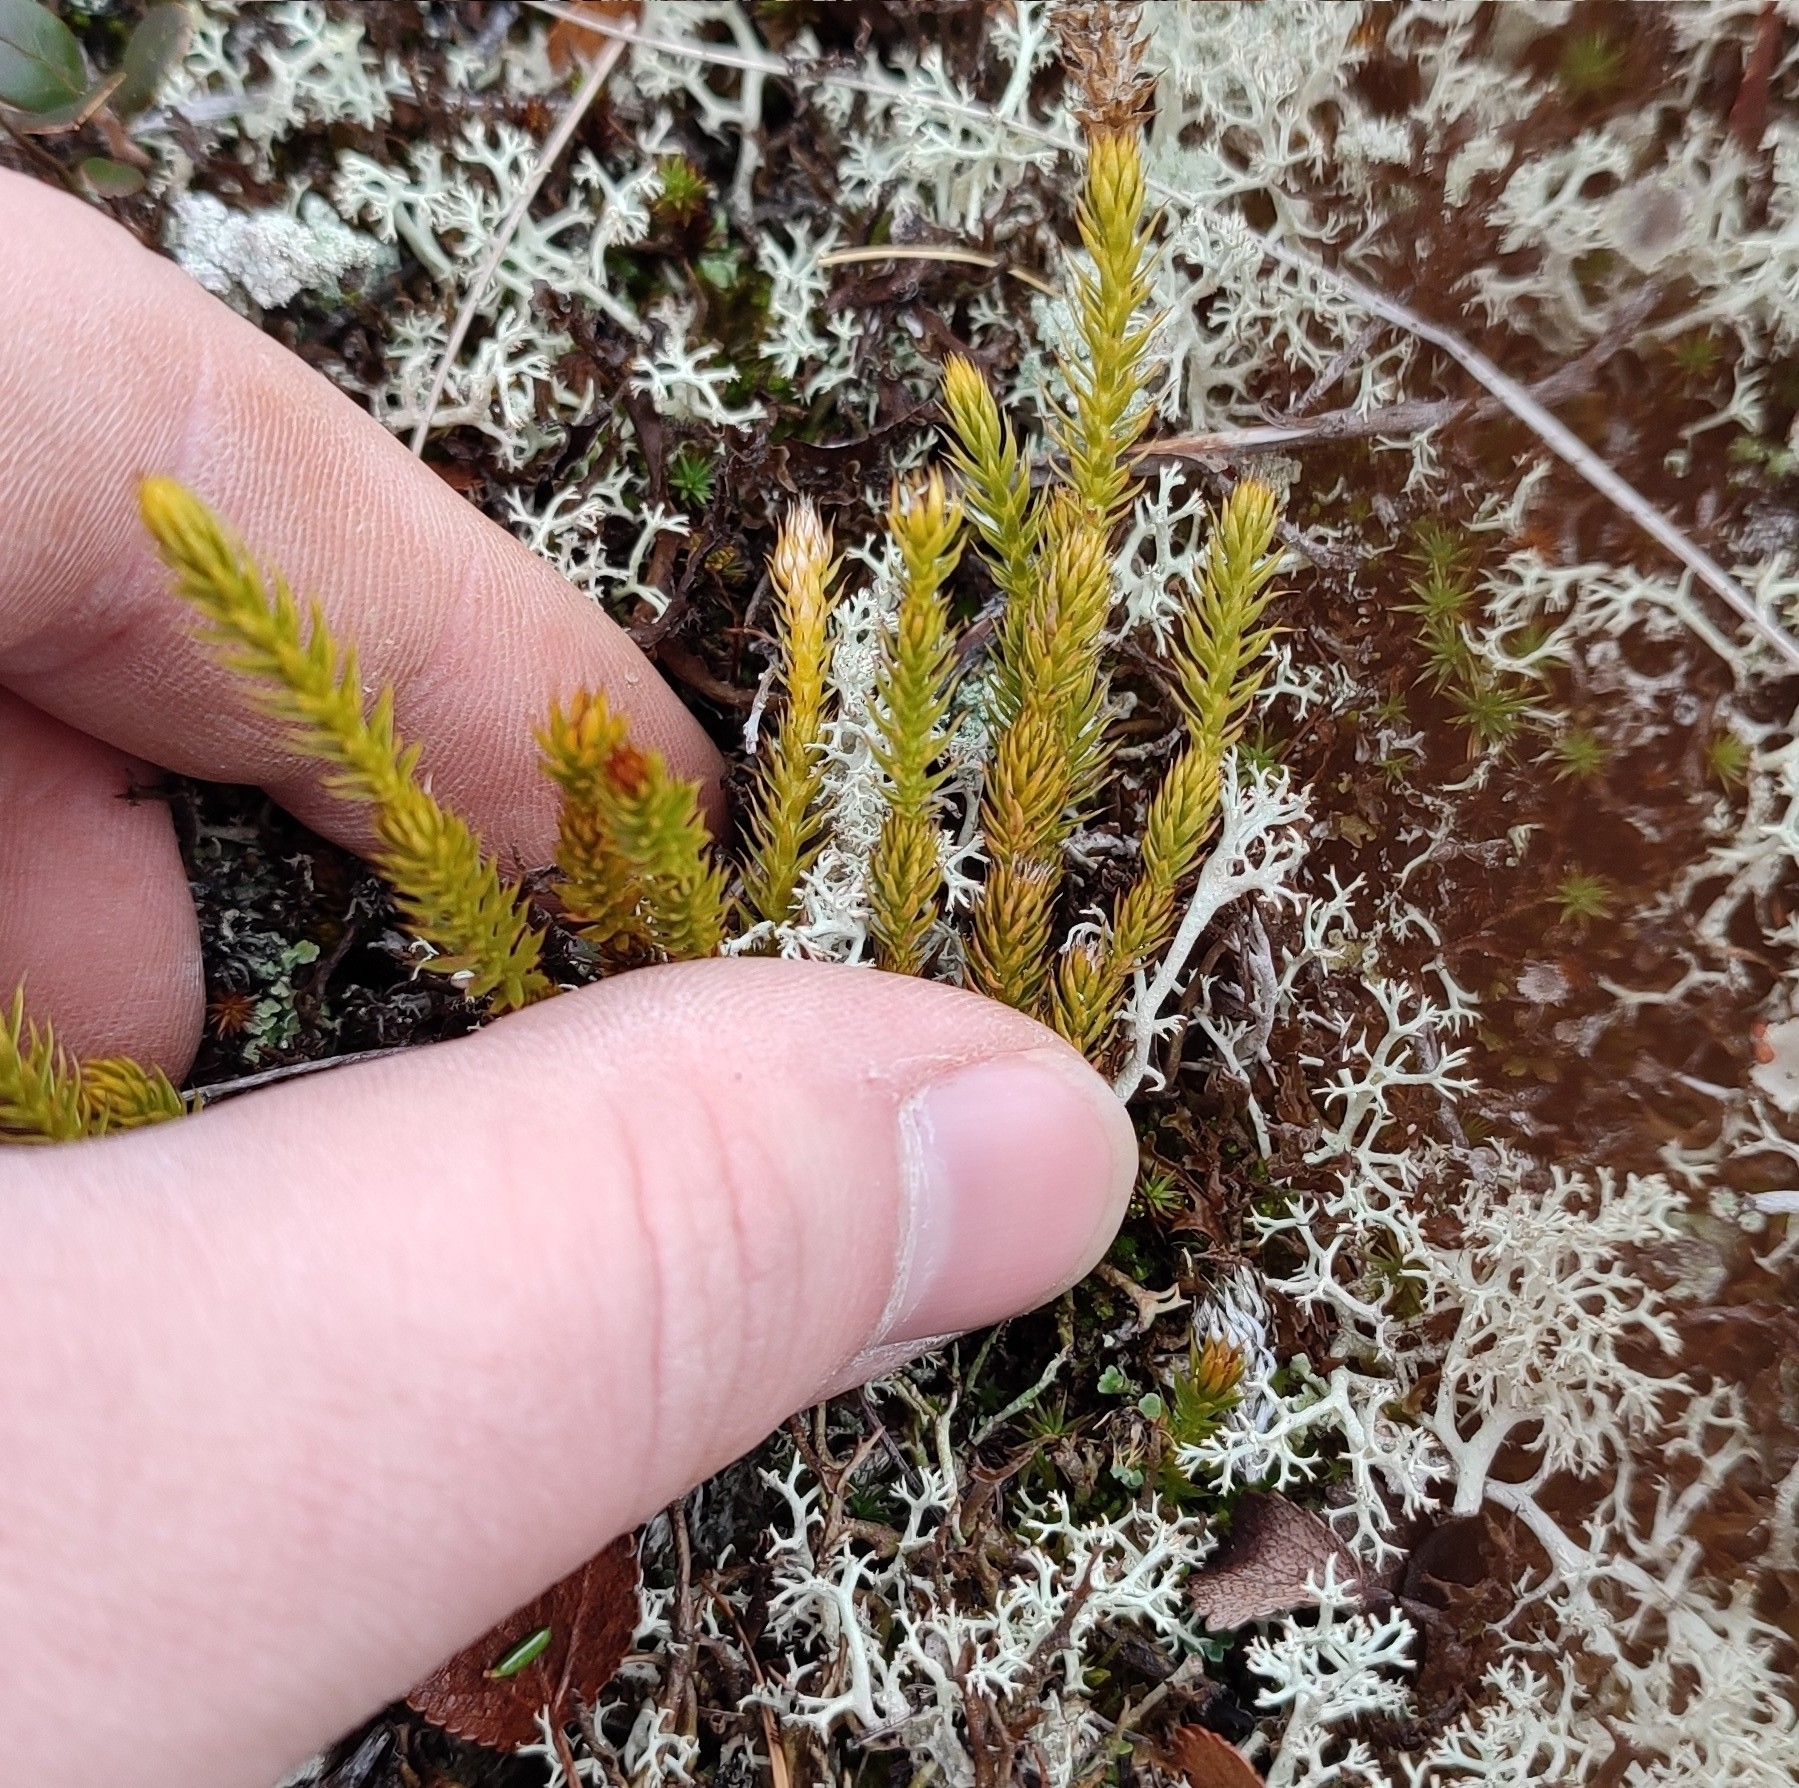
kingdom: Plantae
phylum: Tracheophyta
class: Lycopodiopsida
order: Lycopodiales
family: Lycopodiaceae
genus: Spinulum
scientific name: Spinulum annotinum
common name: Interrupted club-moss
